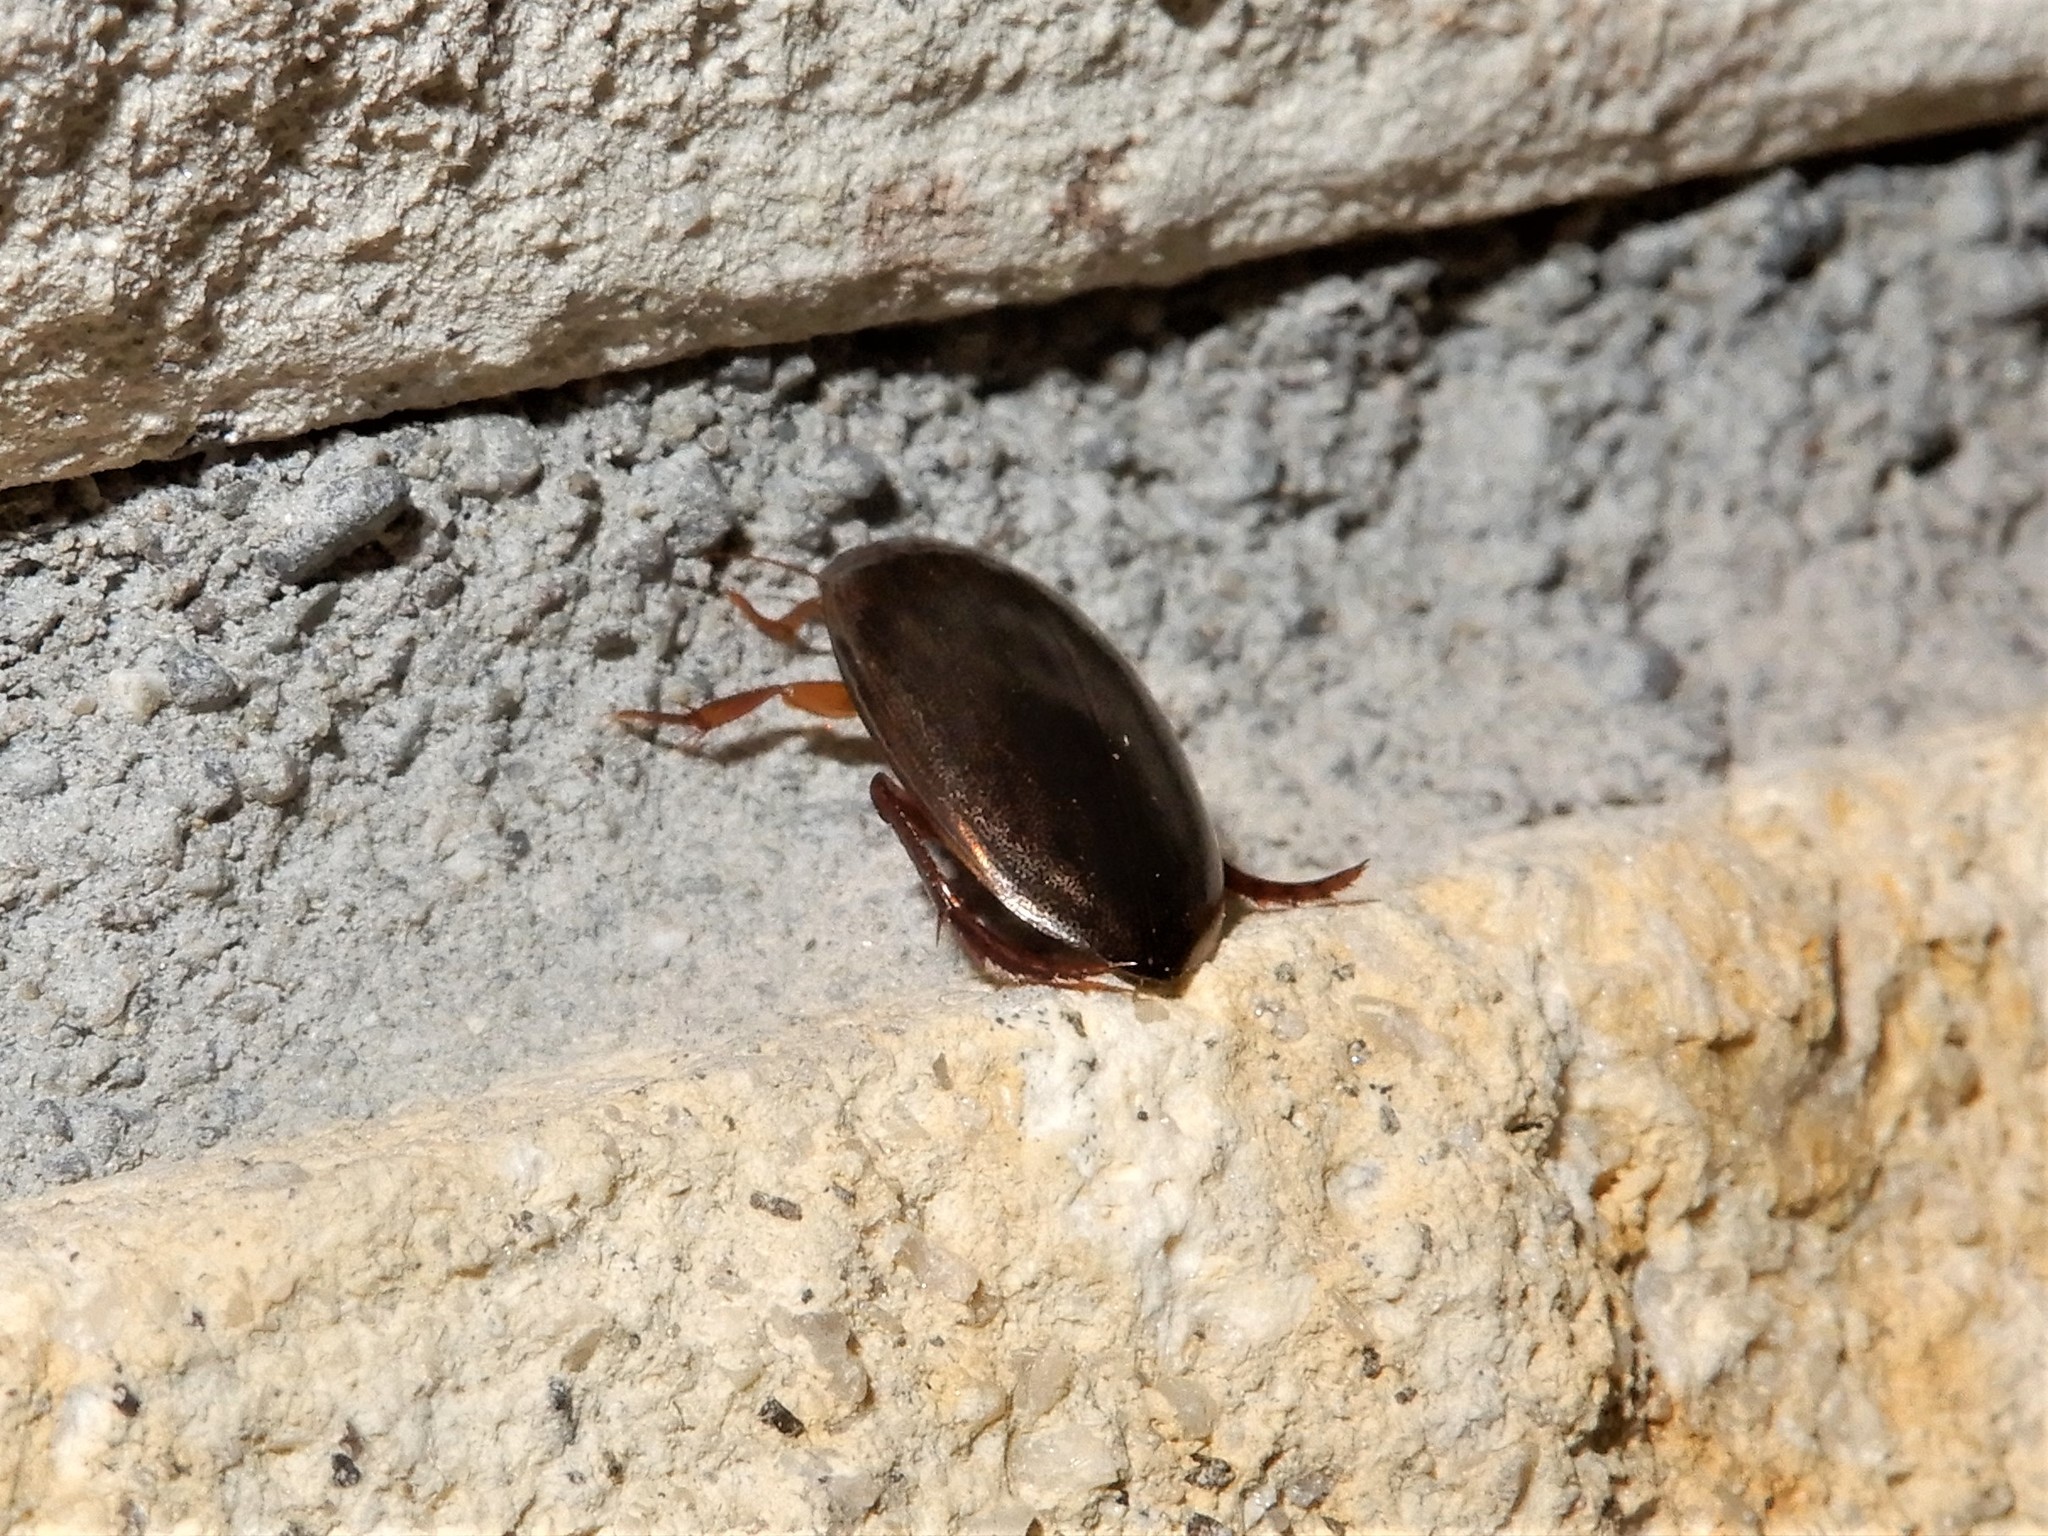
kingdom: Animalia
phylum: Arthropoda
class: Insecta
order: Coleoptera
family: Dytiscidae
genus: Rhantus
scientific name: Rhantus suturalis
